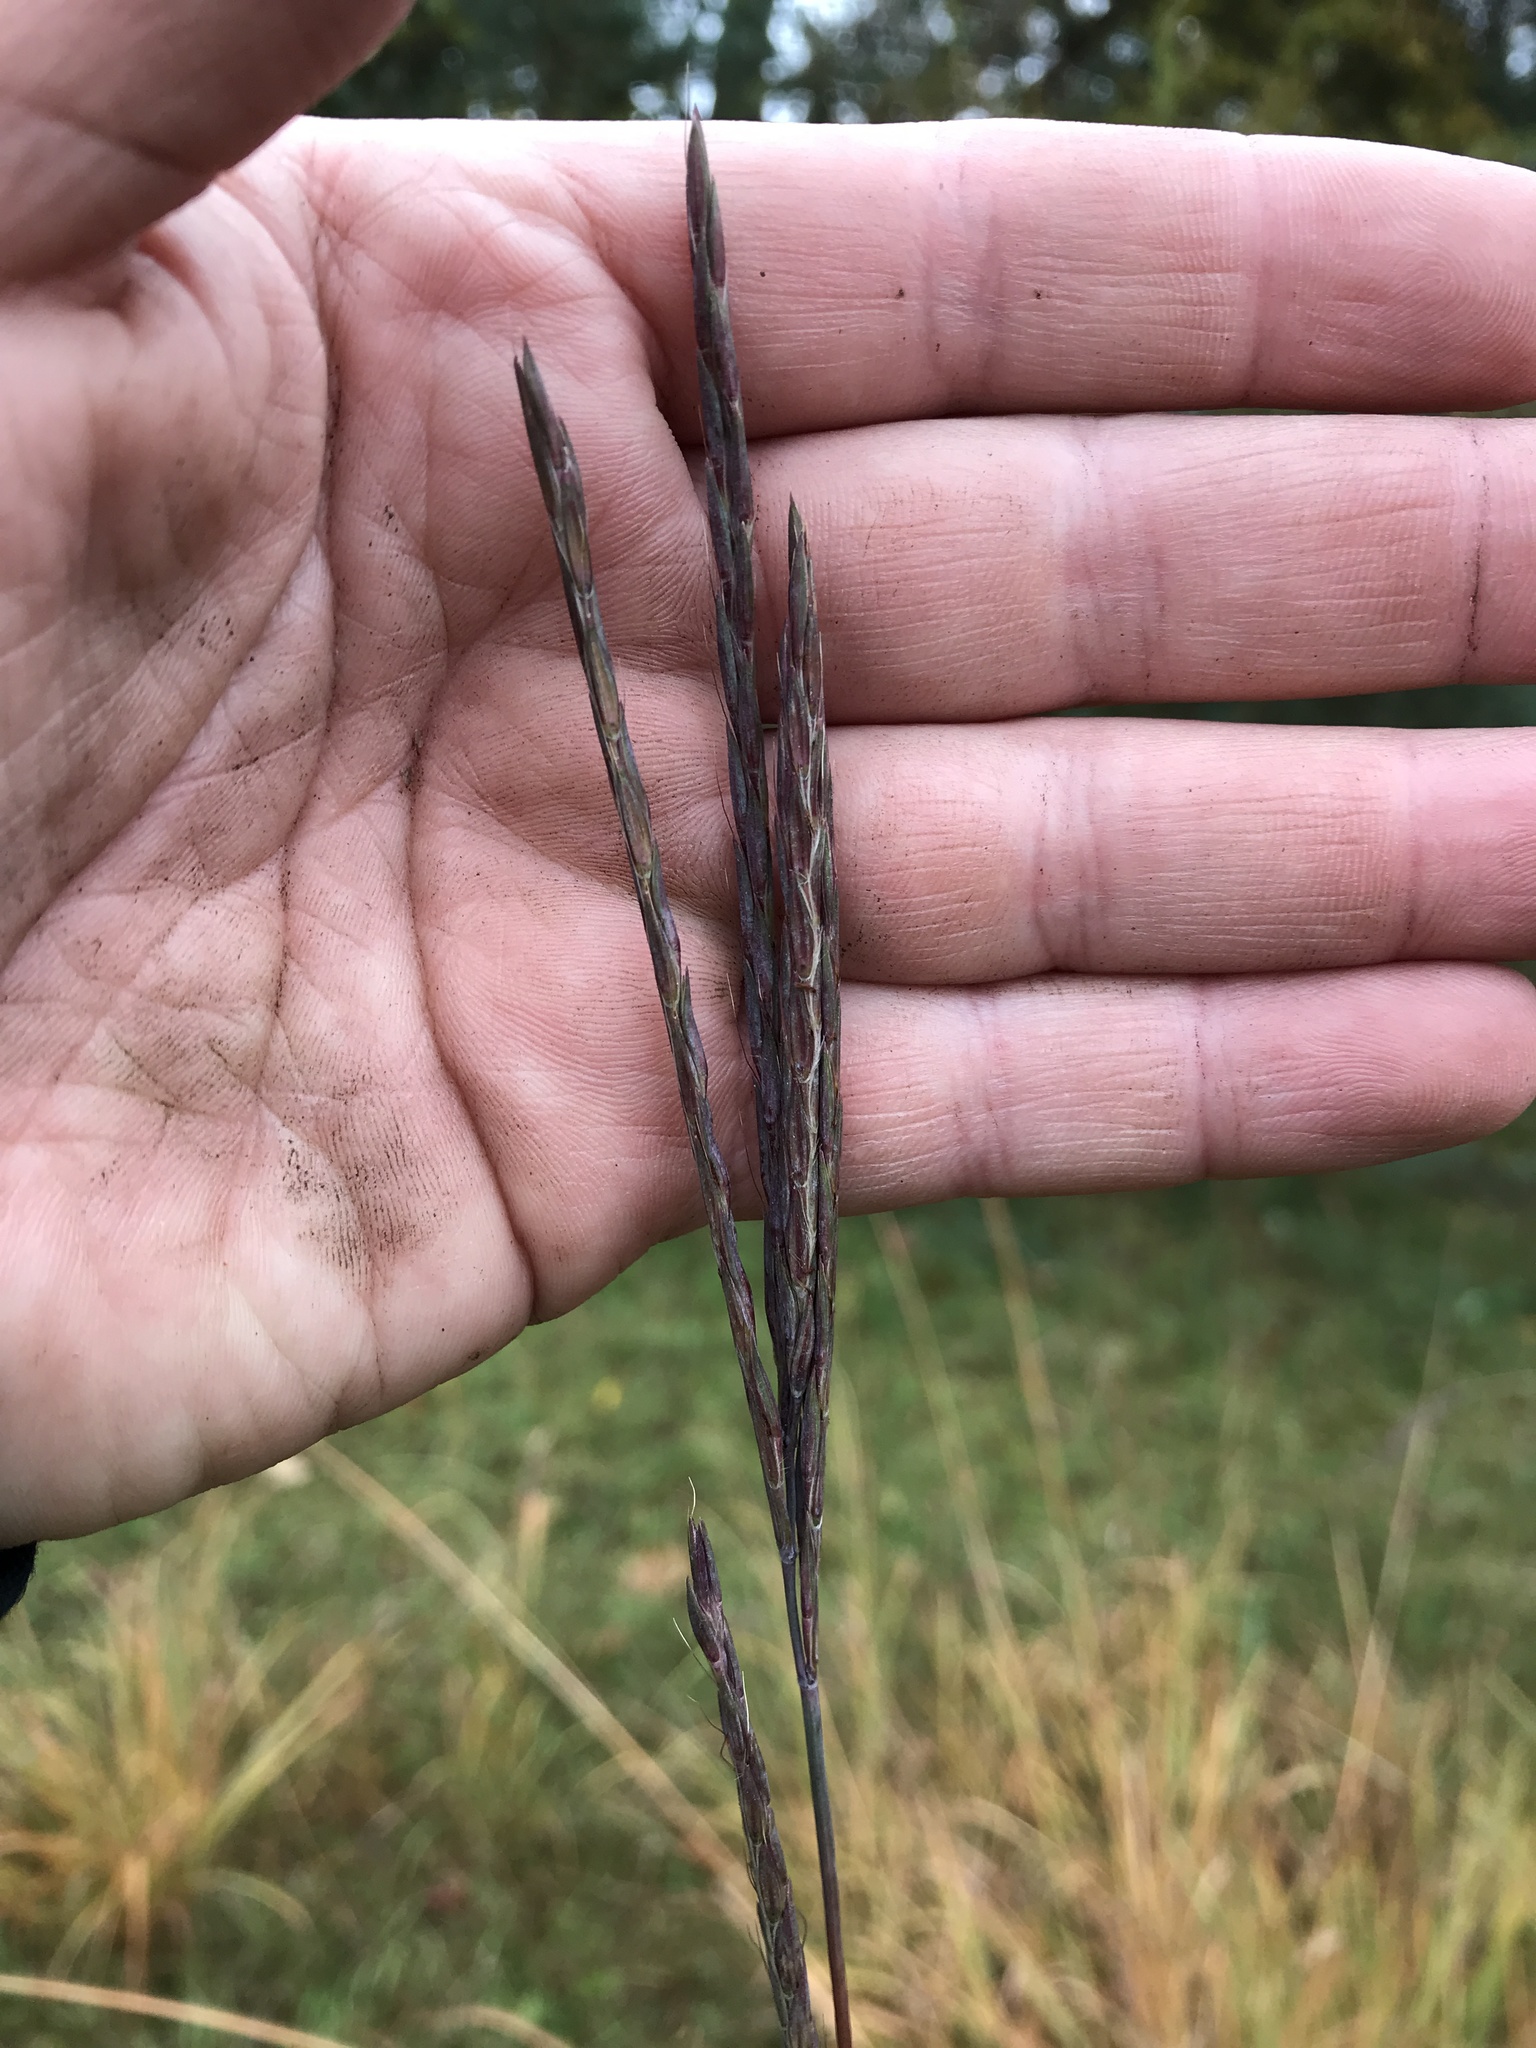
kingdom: Plantae
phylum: Tracheophyta
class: Liliopsida
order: Poales
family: Poaceae
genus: Andropogon
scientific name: Andropogon gerardi
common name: Big bluestem
